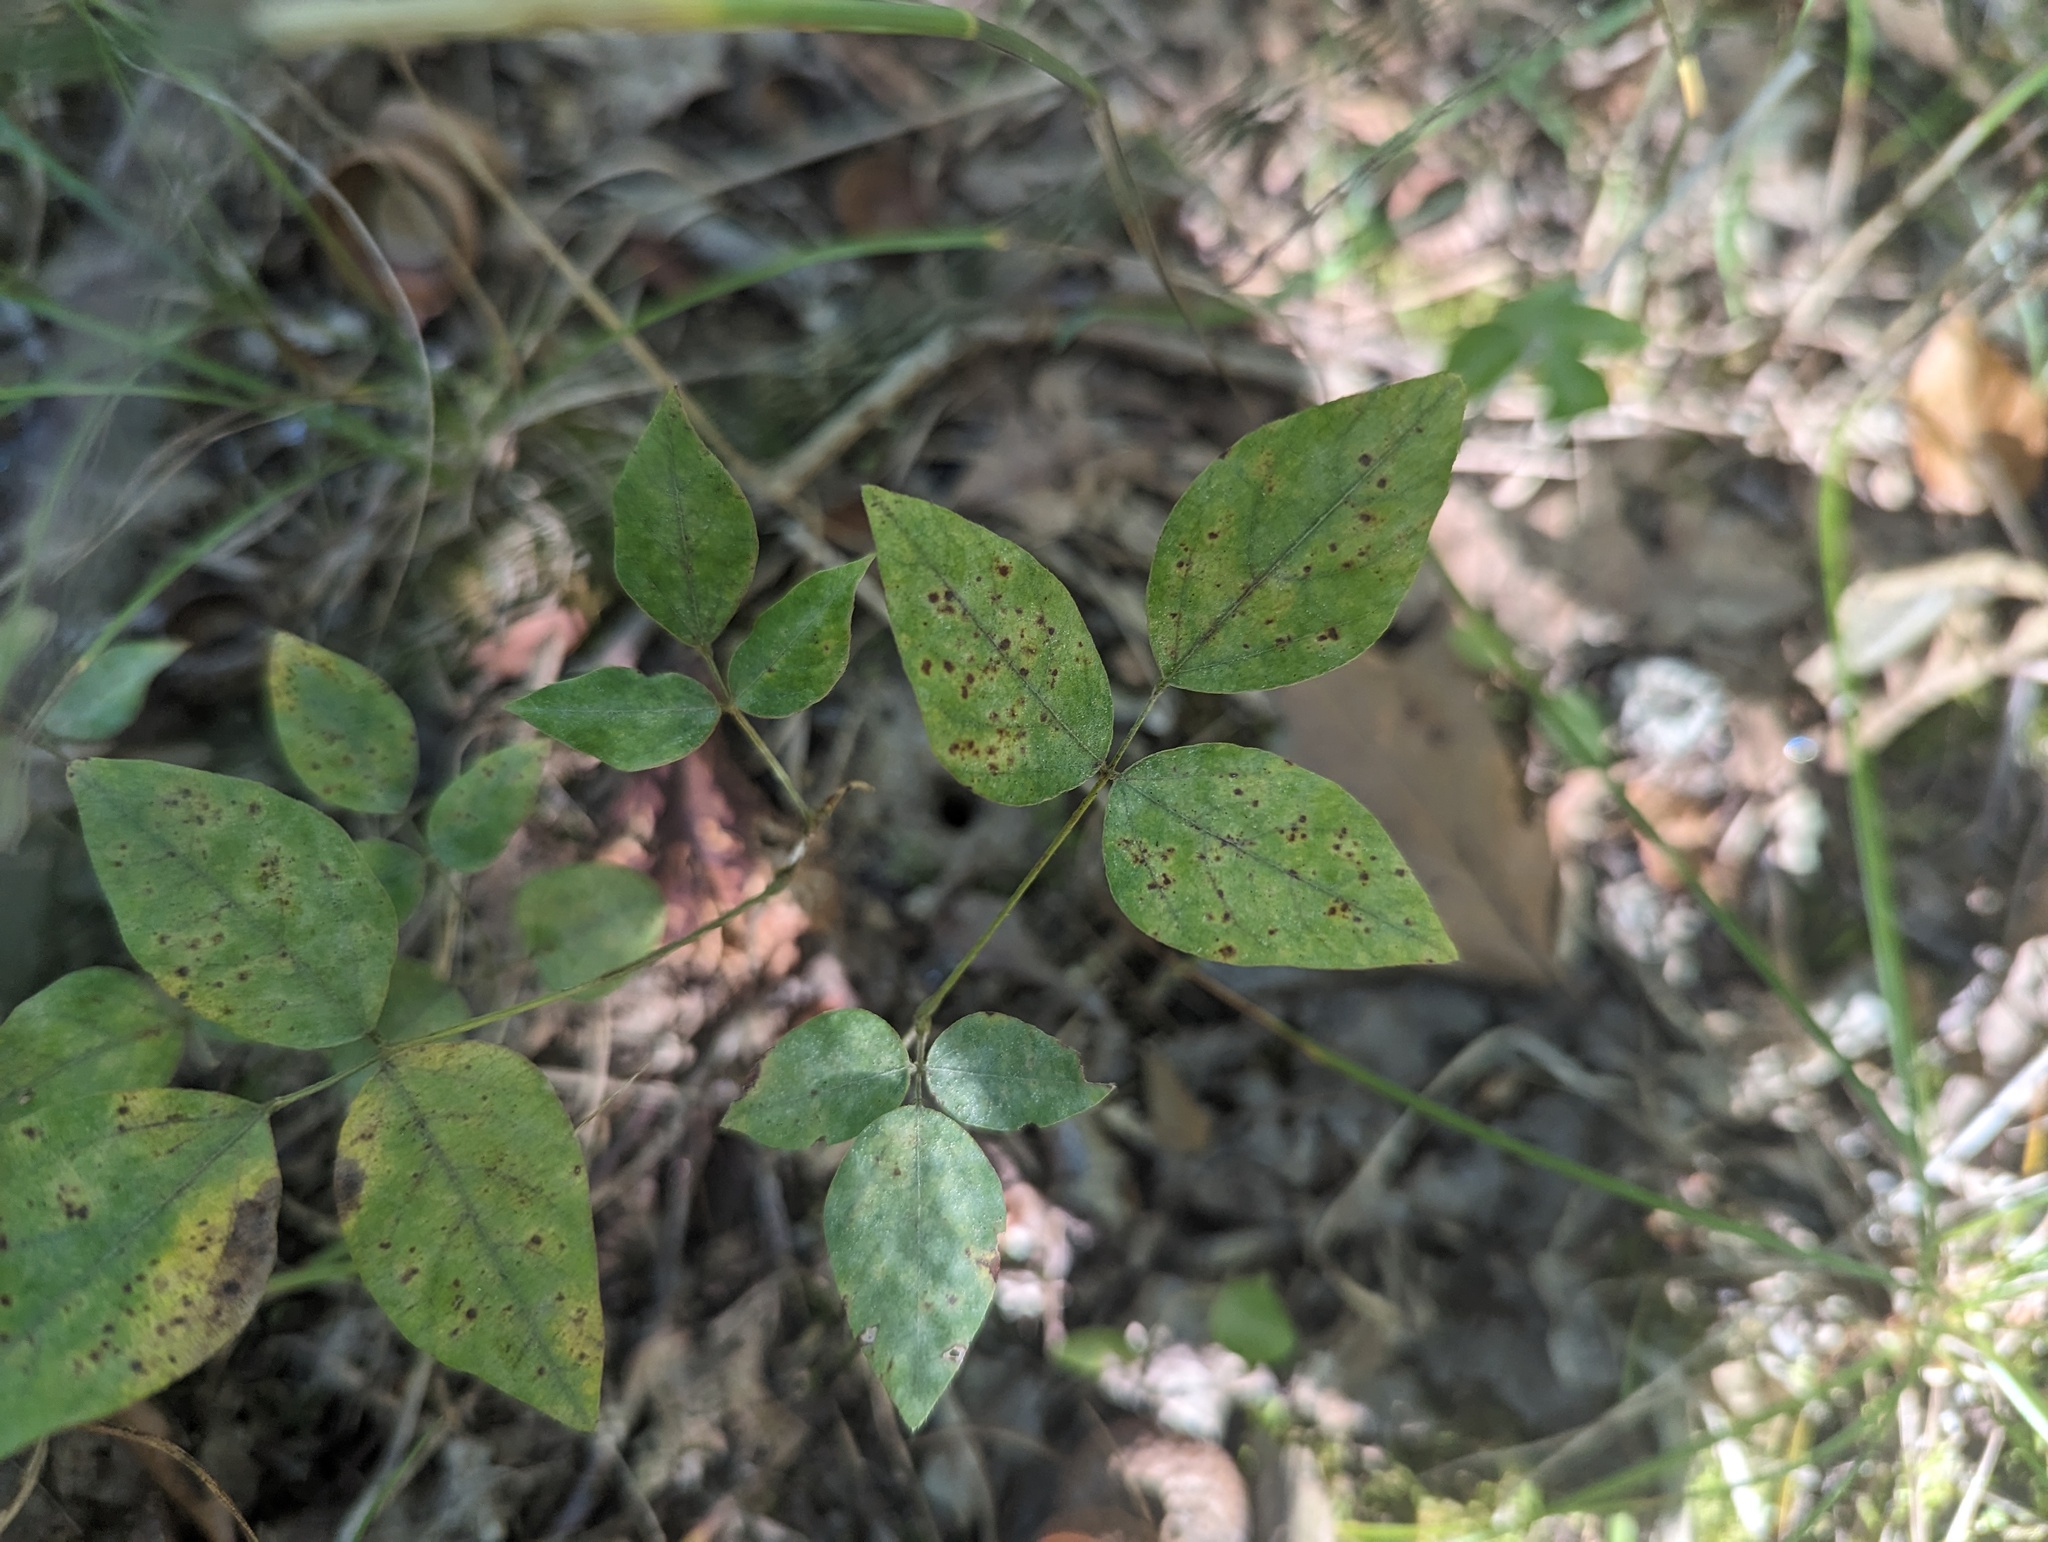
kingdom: Plantae
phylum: Tracheophyta
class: Magnoliopsida
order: Fabales
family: Fabaceae
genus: Amphicarpaea
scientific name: Amphicarpaea bracteata
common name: American hog peanut
